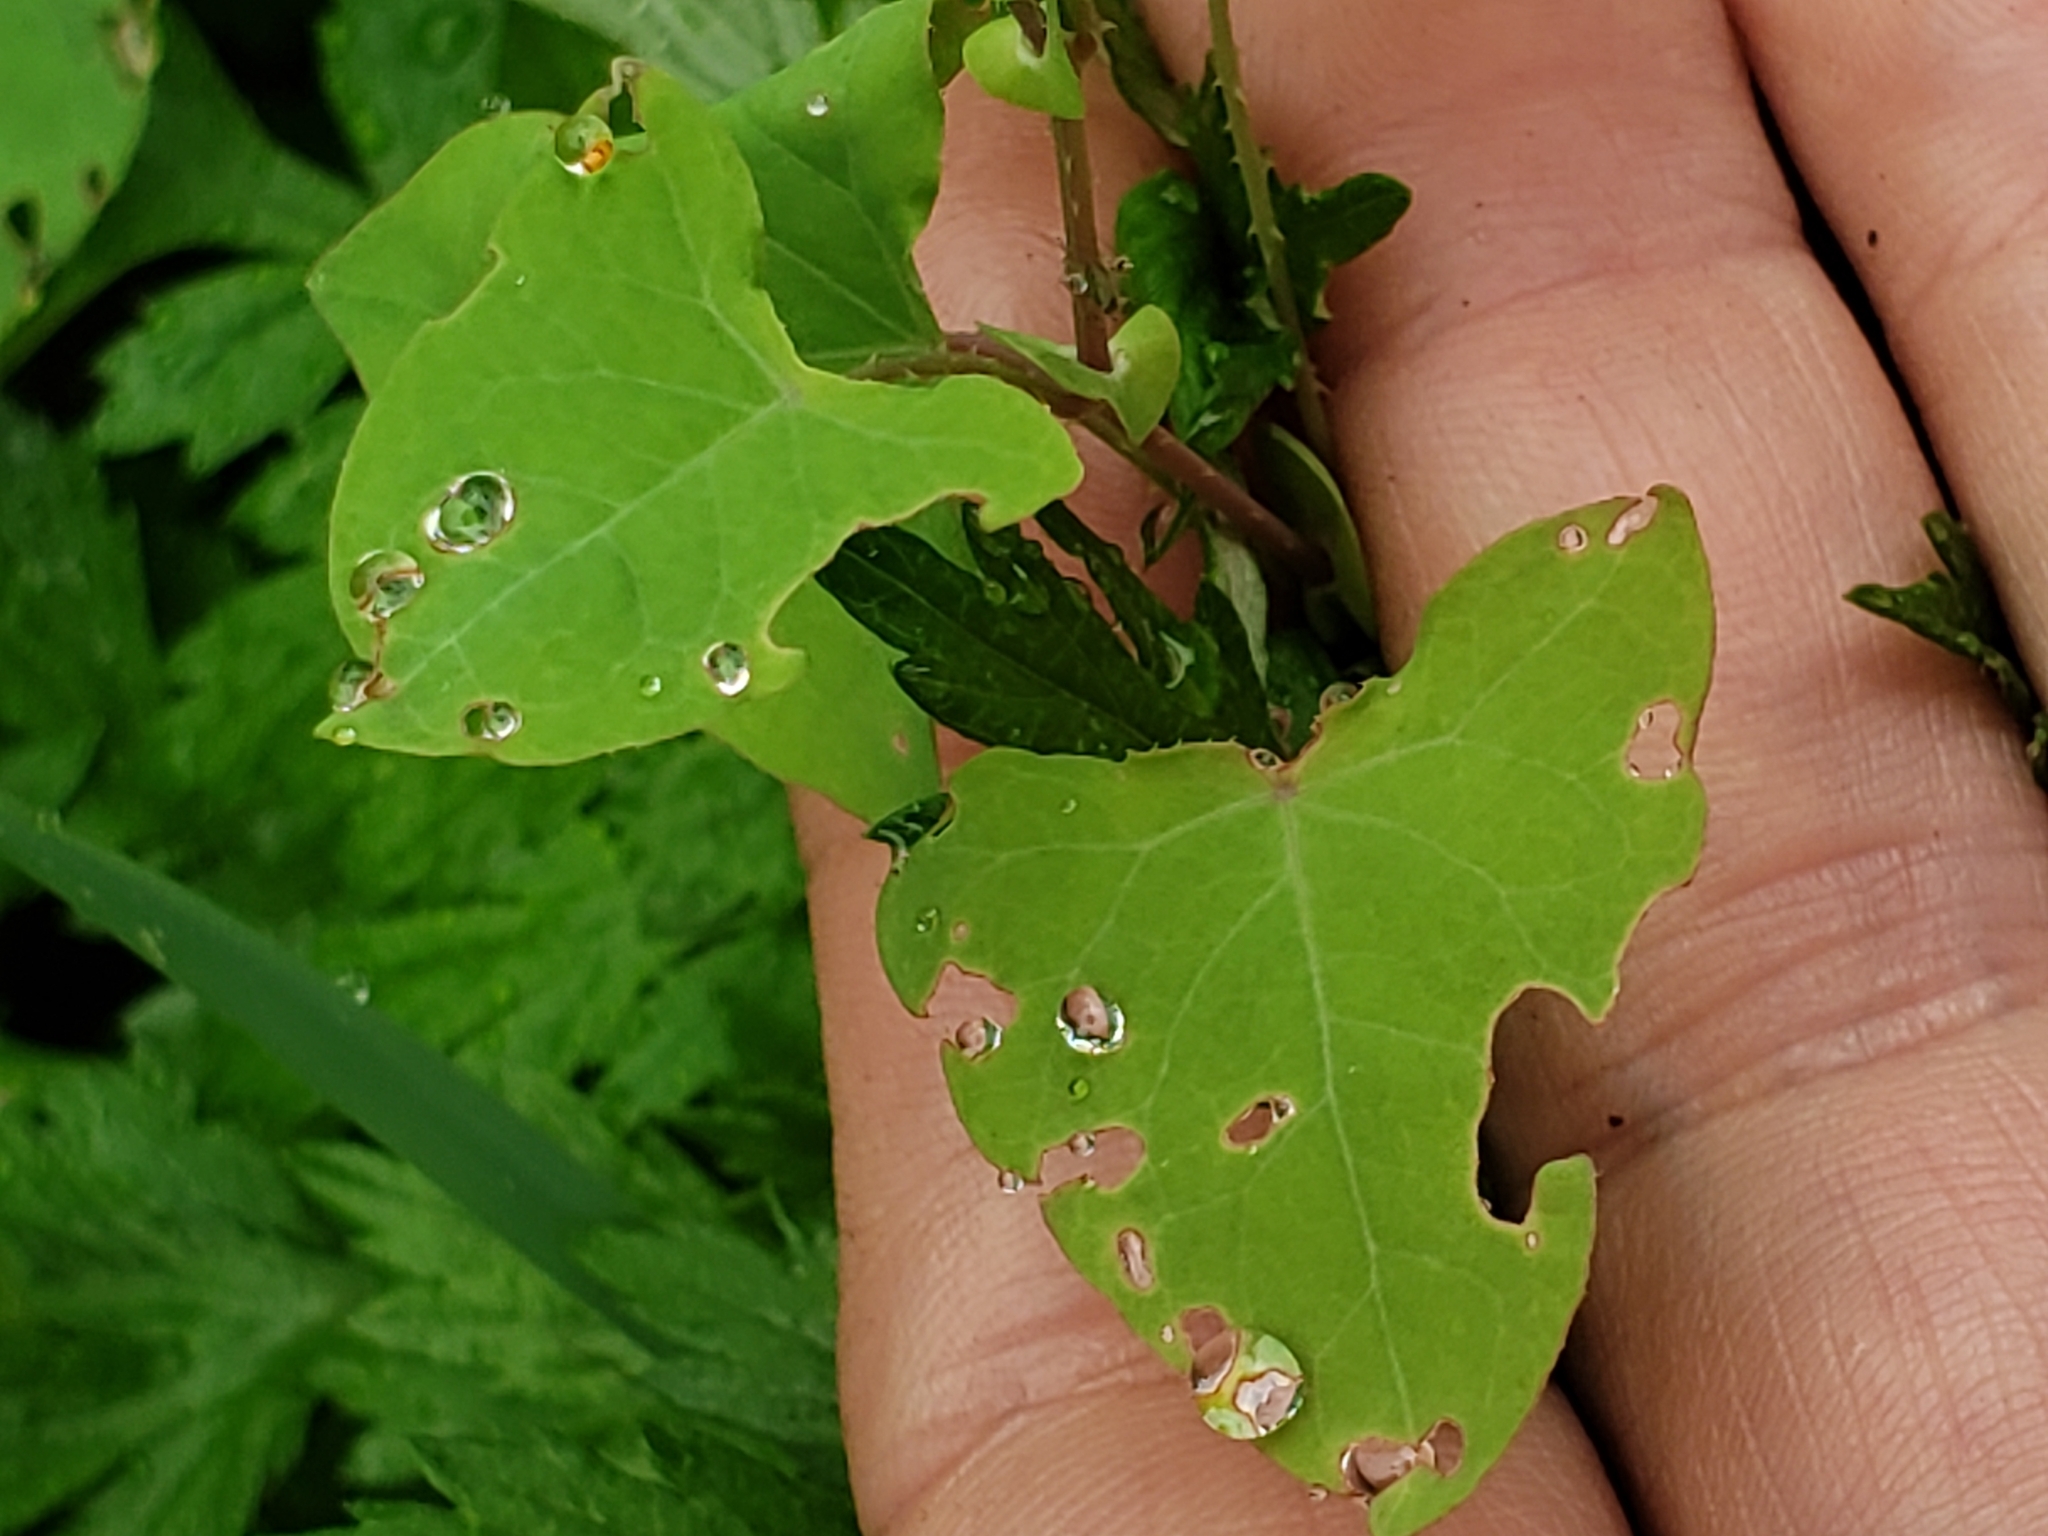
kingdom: Animalia
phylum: Arthropoda
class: Insecta
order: Coleoptera
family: Curculionidae
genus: Rhinoncomimus
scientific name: Rhinoncomimus latipes
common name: Chinese weevil
